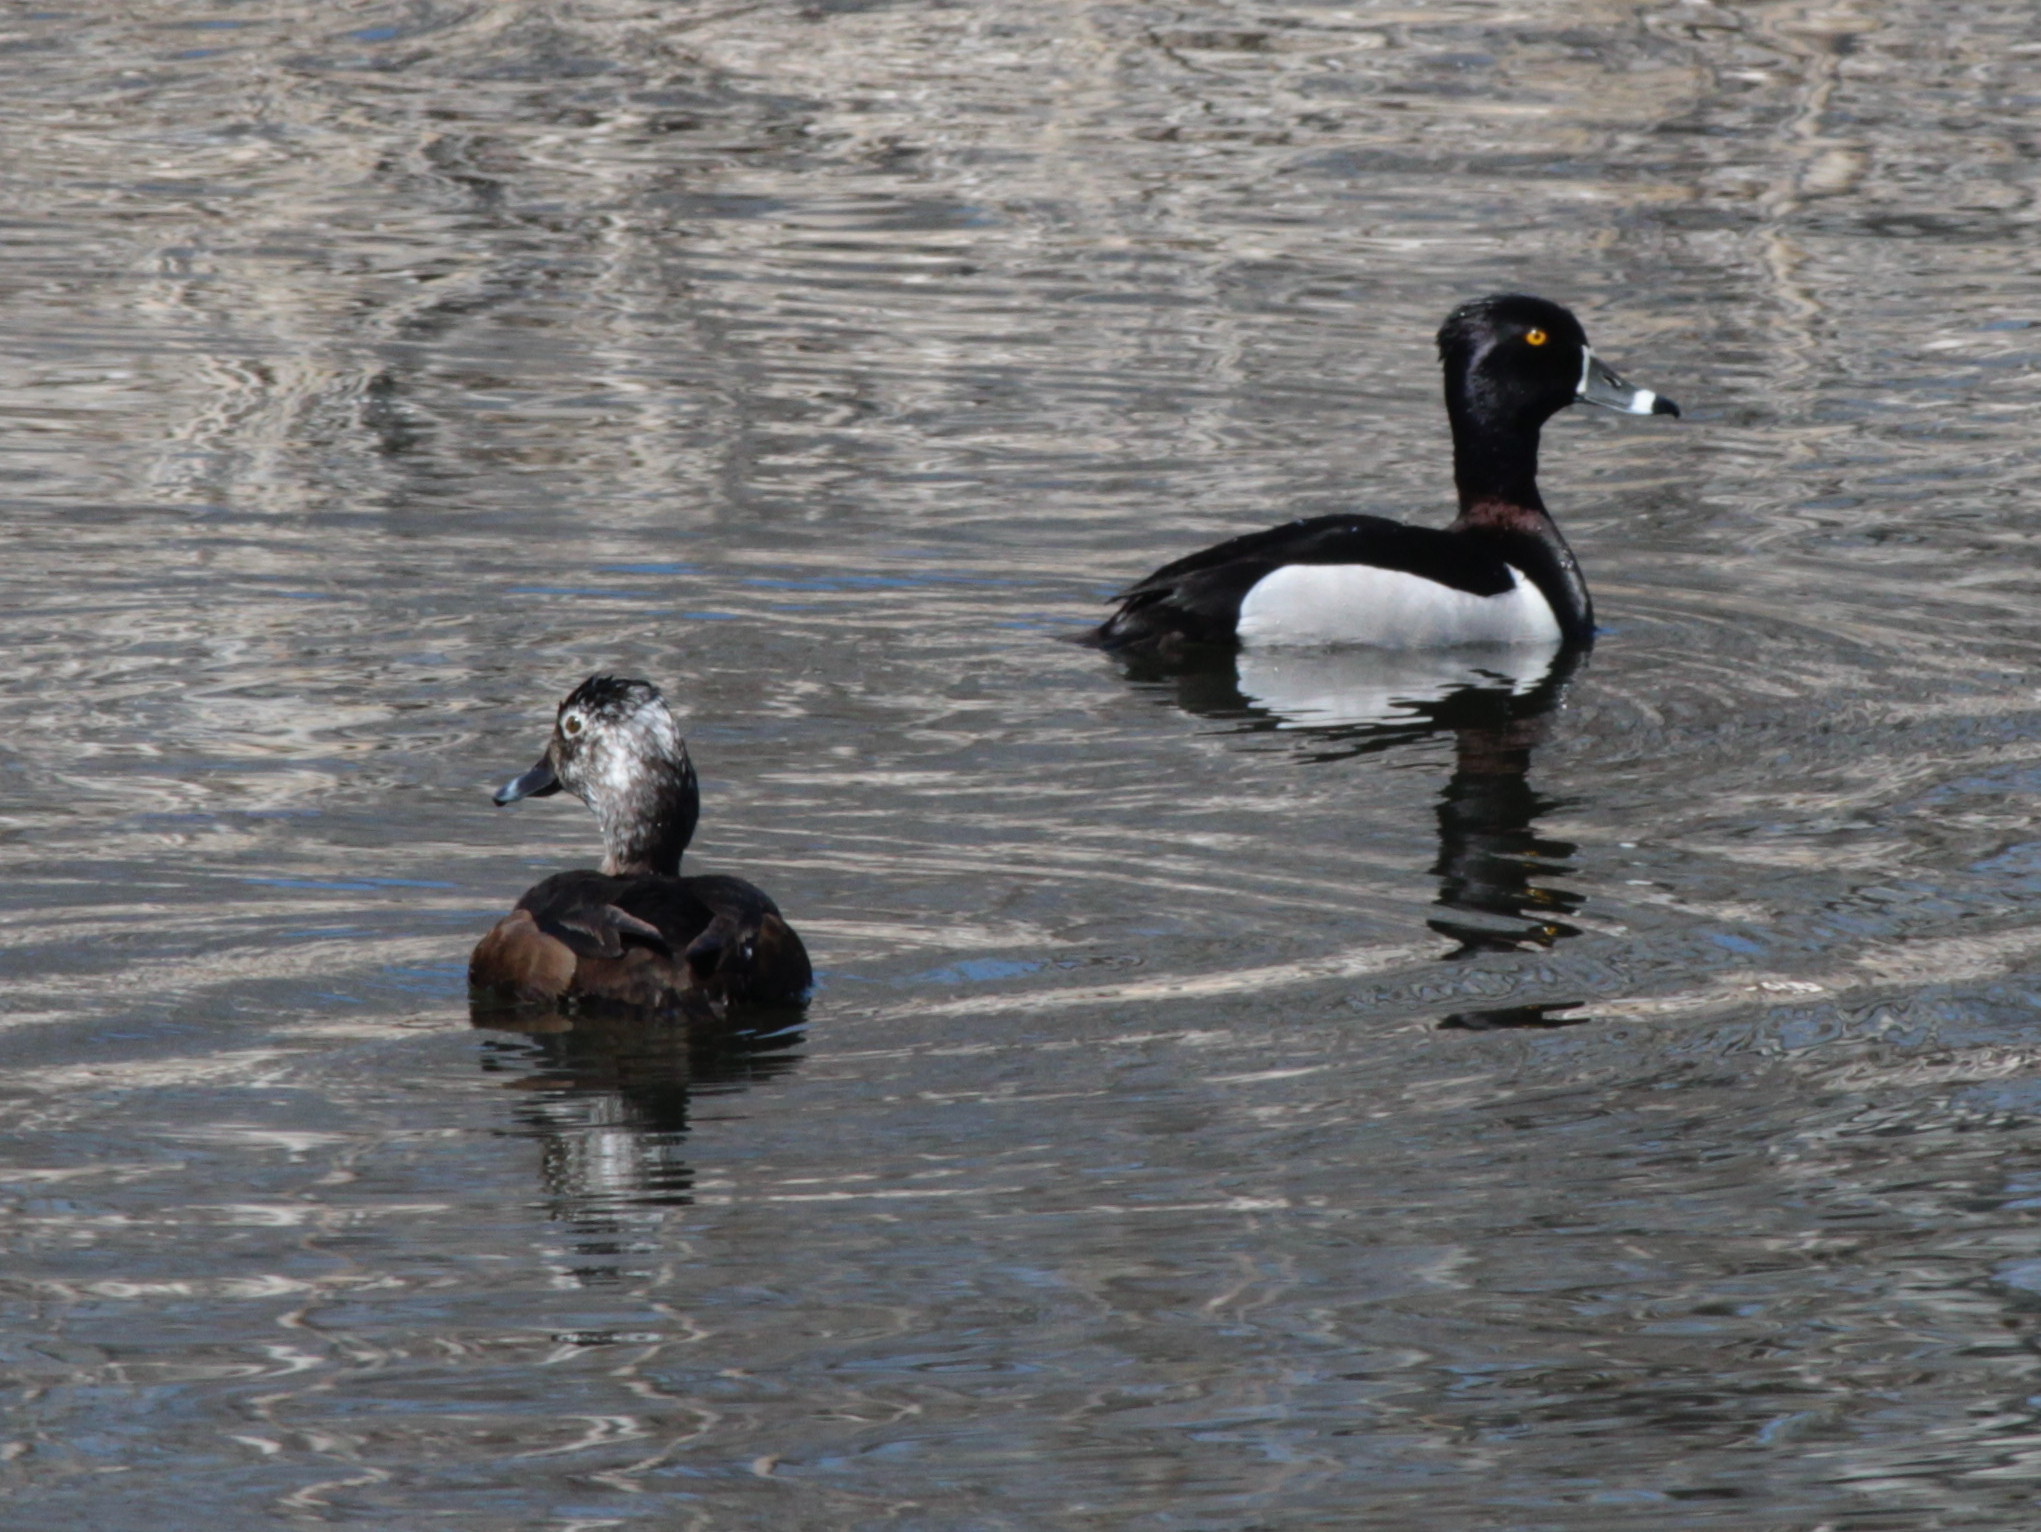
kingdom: Animalia
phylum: Chordata
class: Aves
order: Anseriformes
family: Anatidae
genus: Aythya
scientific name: Aythya collaris
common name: Ring-necked duck
